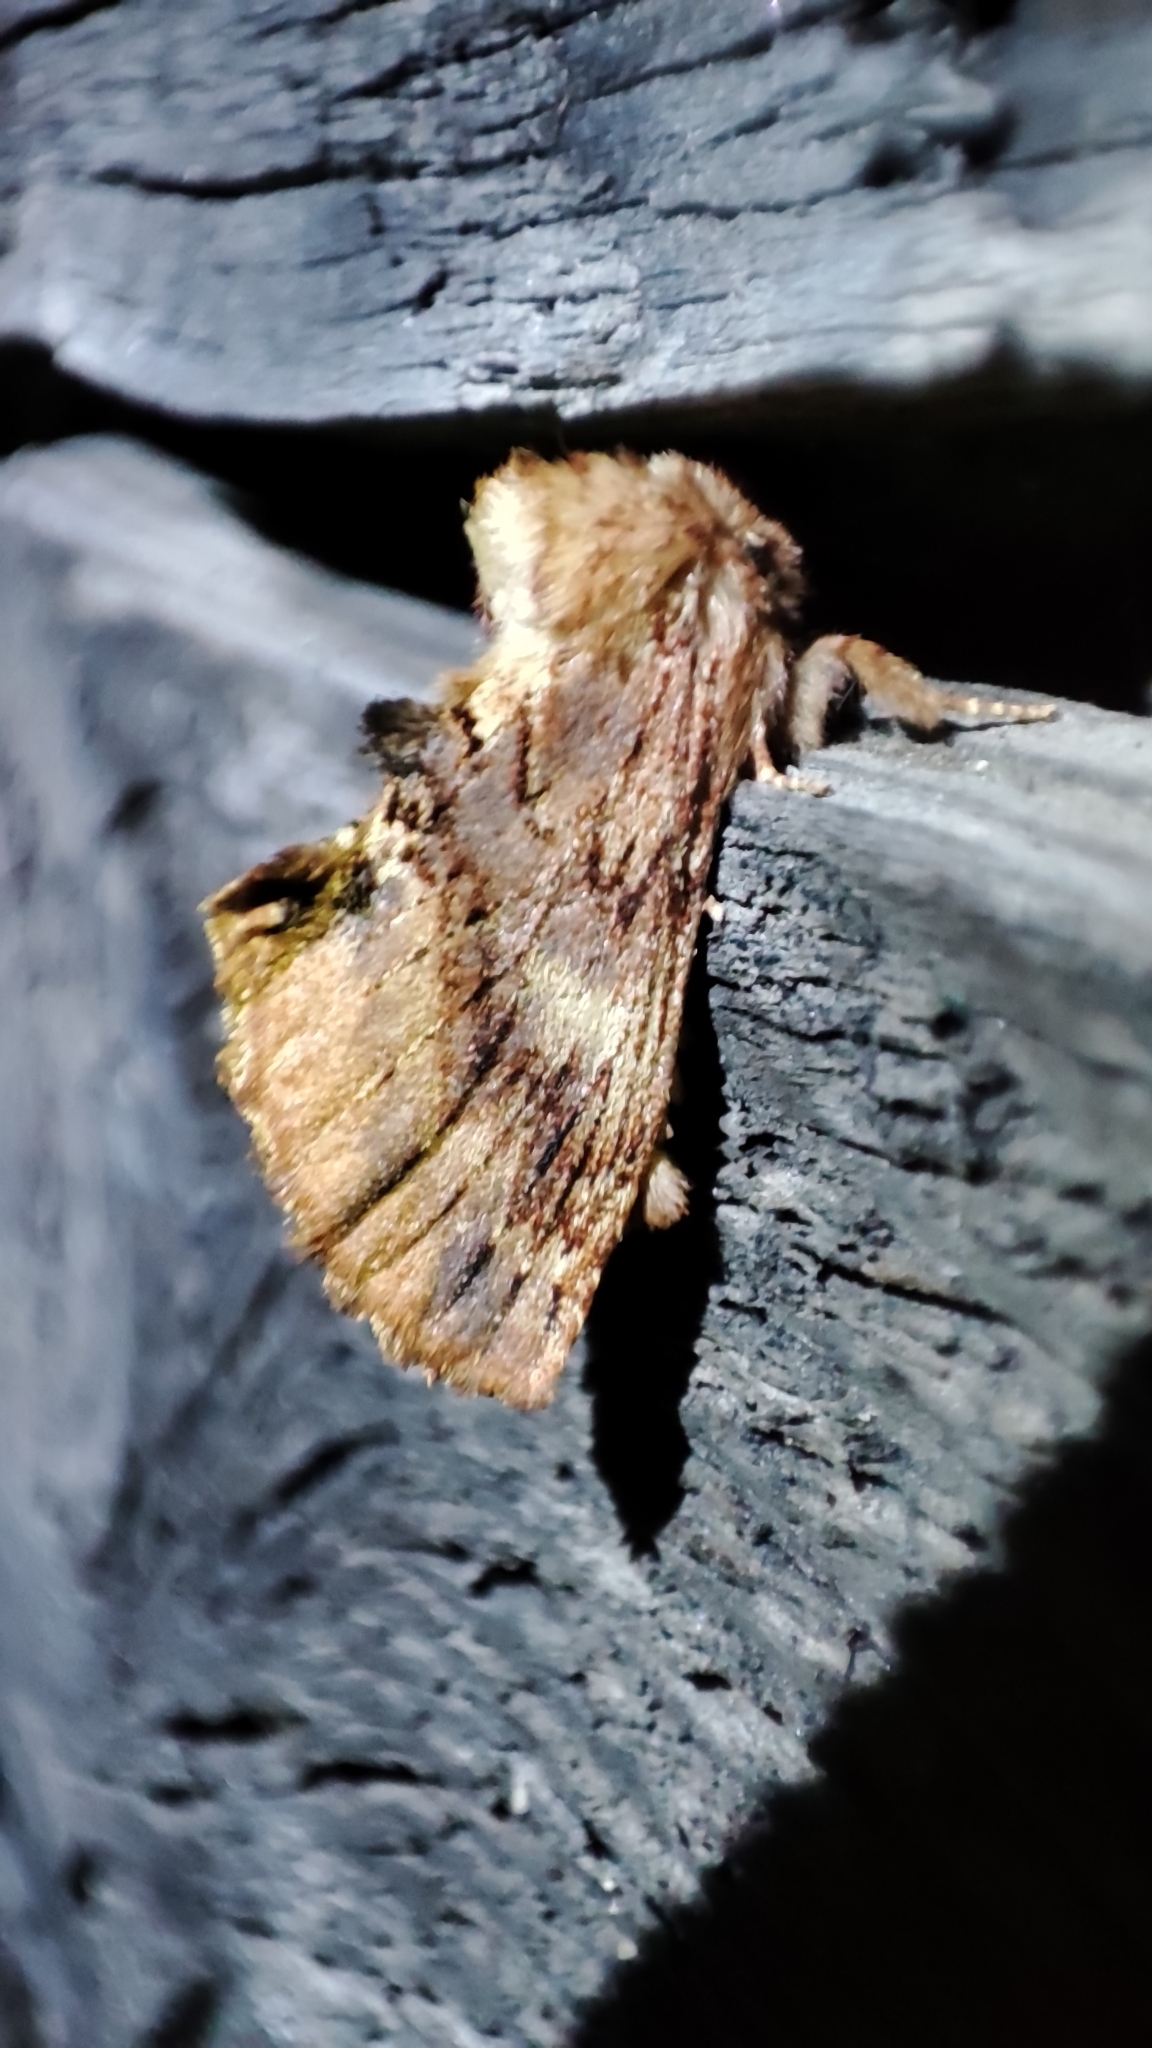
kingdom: Animalia
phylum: Arthropoda
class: Insecta
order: Lepidoptera
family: Notodontidae
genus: Ptilodon
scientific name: Ptilodon capucina
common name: Coxcomb prominent
